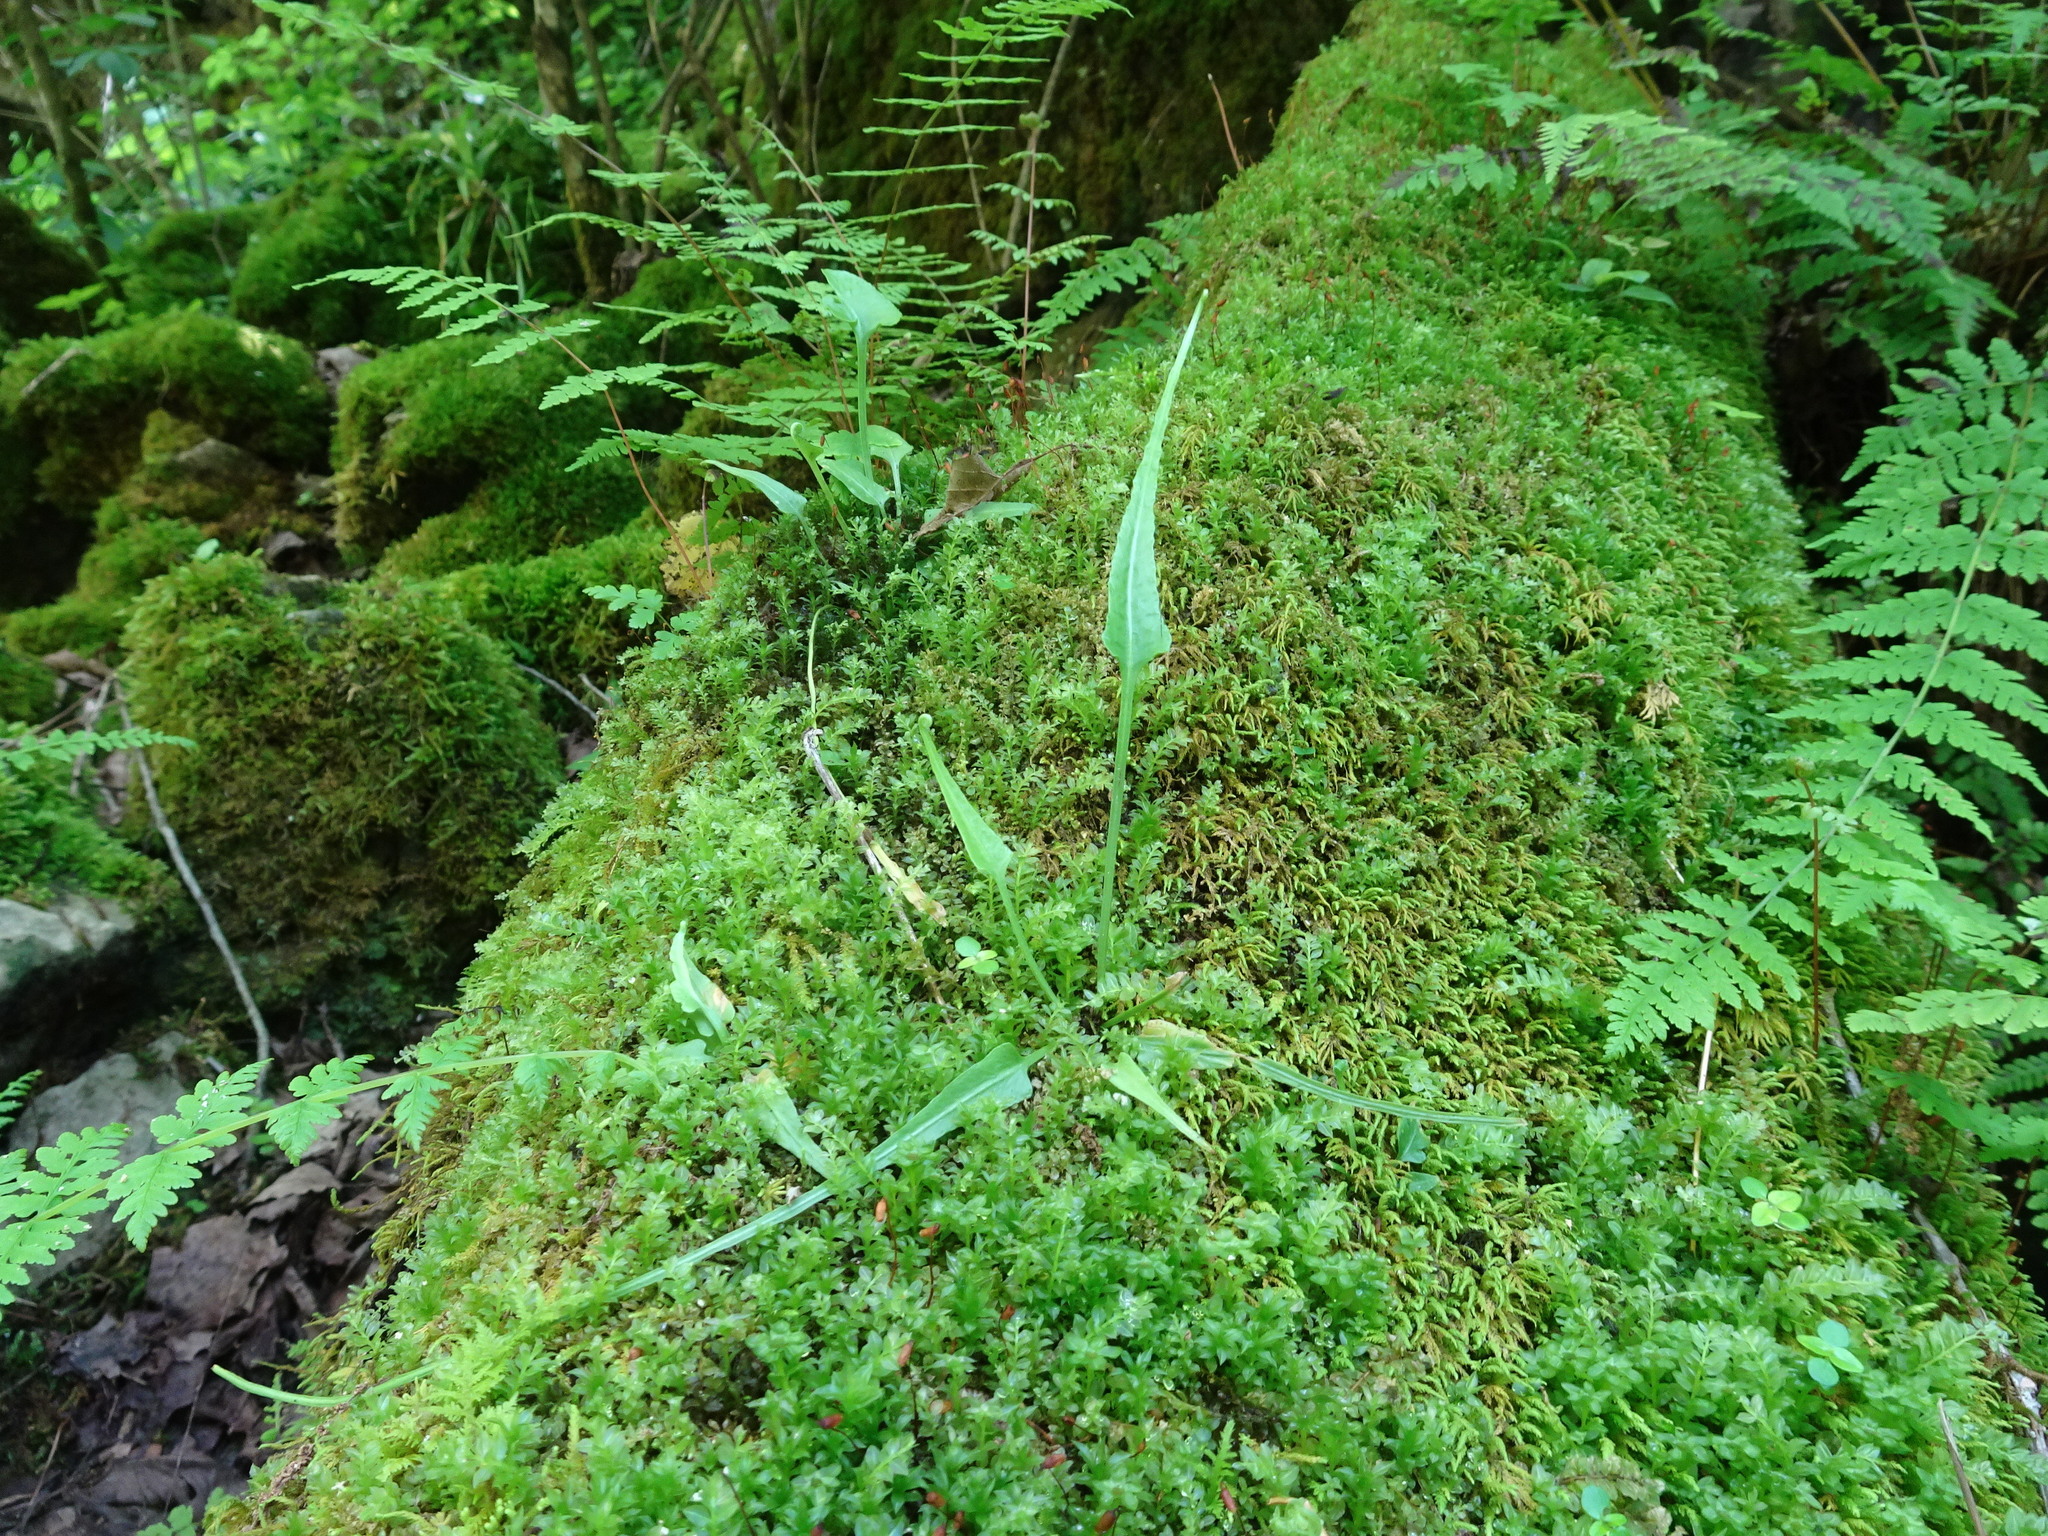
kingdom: Plantae
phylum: Tracheophyta
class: Polypodiopsida
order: Polypodiales
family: Aspleniaceae
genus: Asplenium
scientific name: Asplenium rhizophyllum
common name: Walking fern
